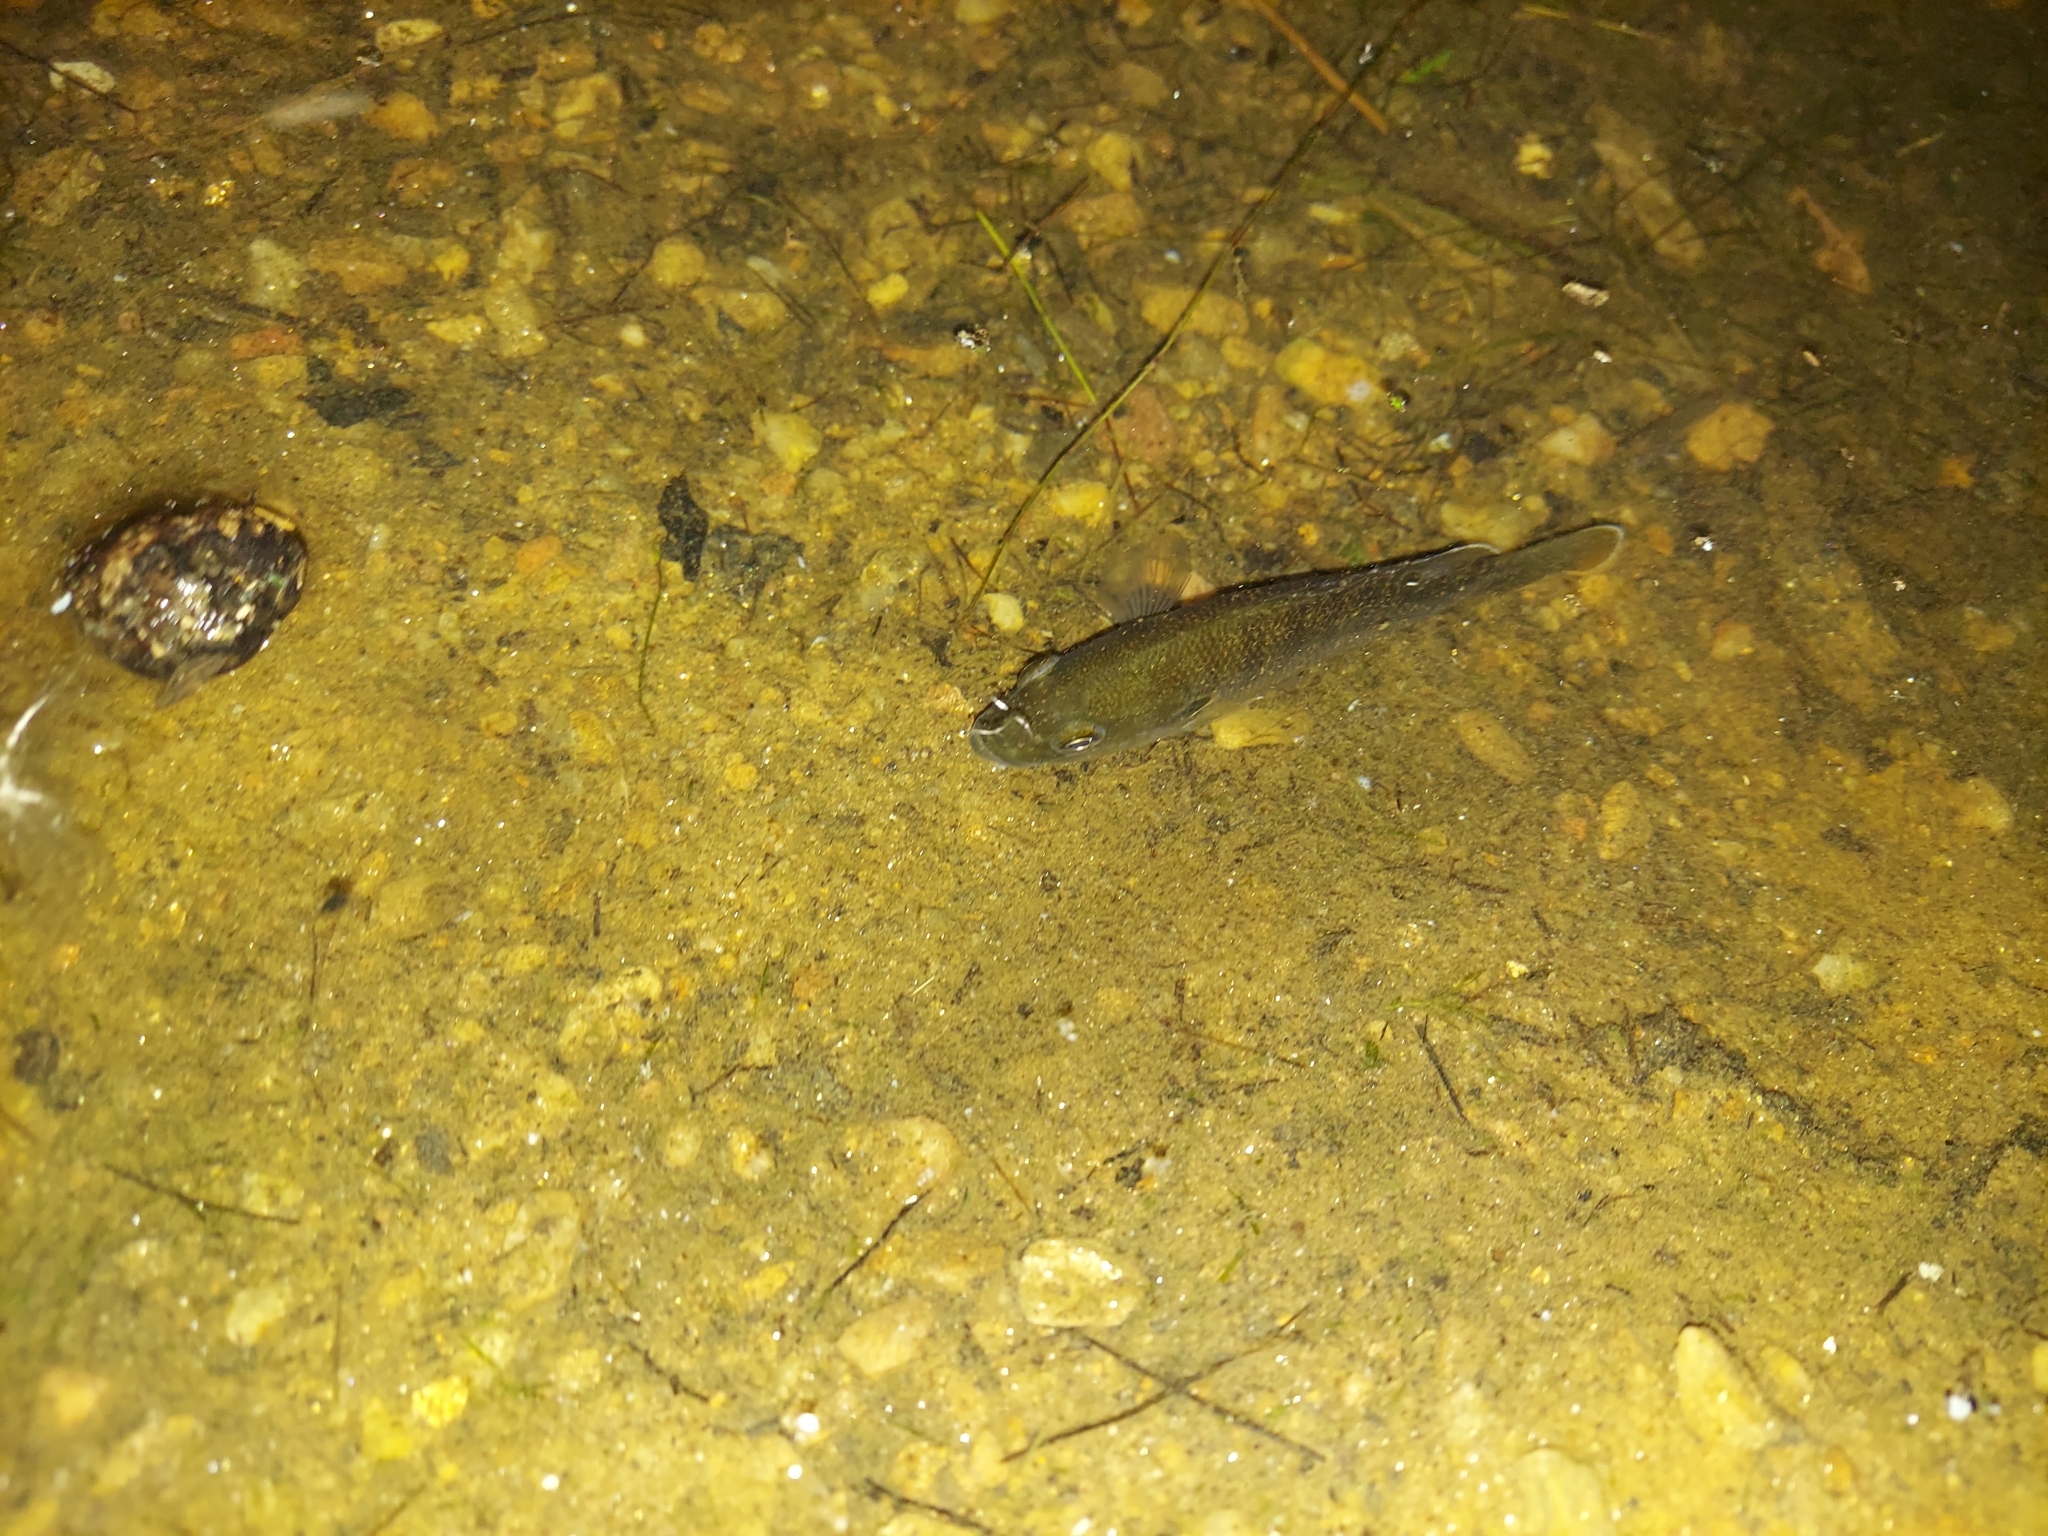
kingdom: Animalia
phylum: Chordata
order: Perciformes
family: Centrarchidae
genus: Lepomis
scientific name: Lepomis cyanellus
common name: Green sunfish
